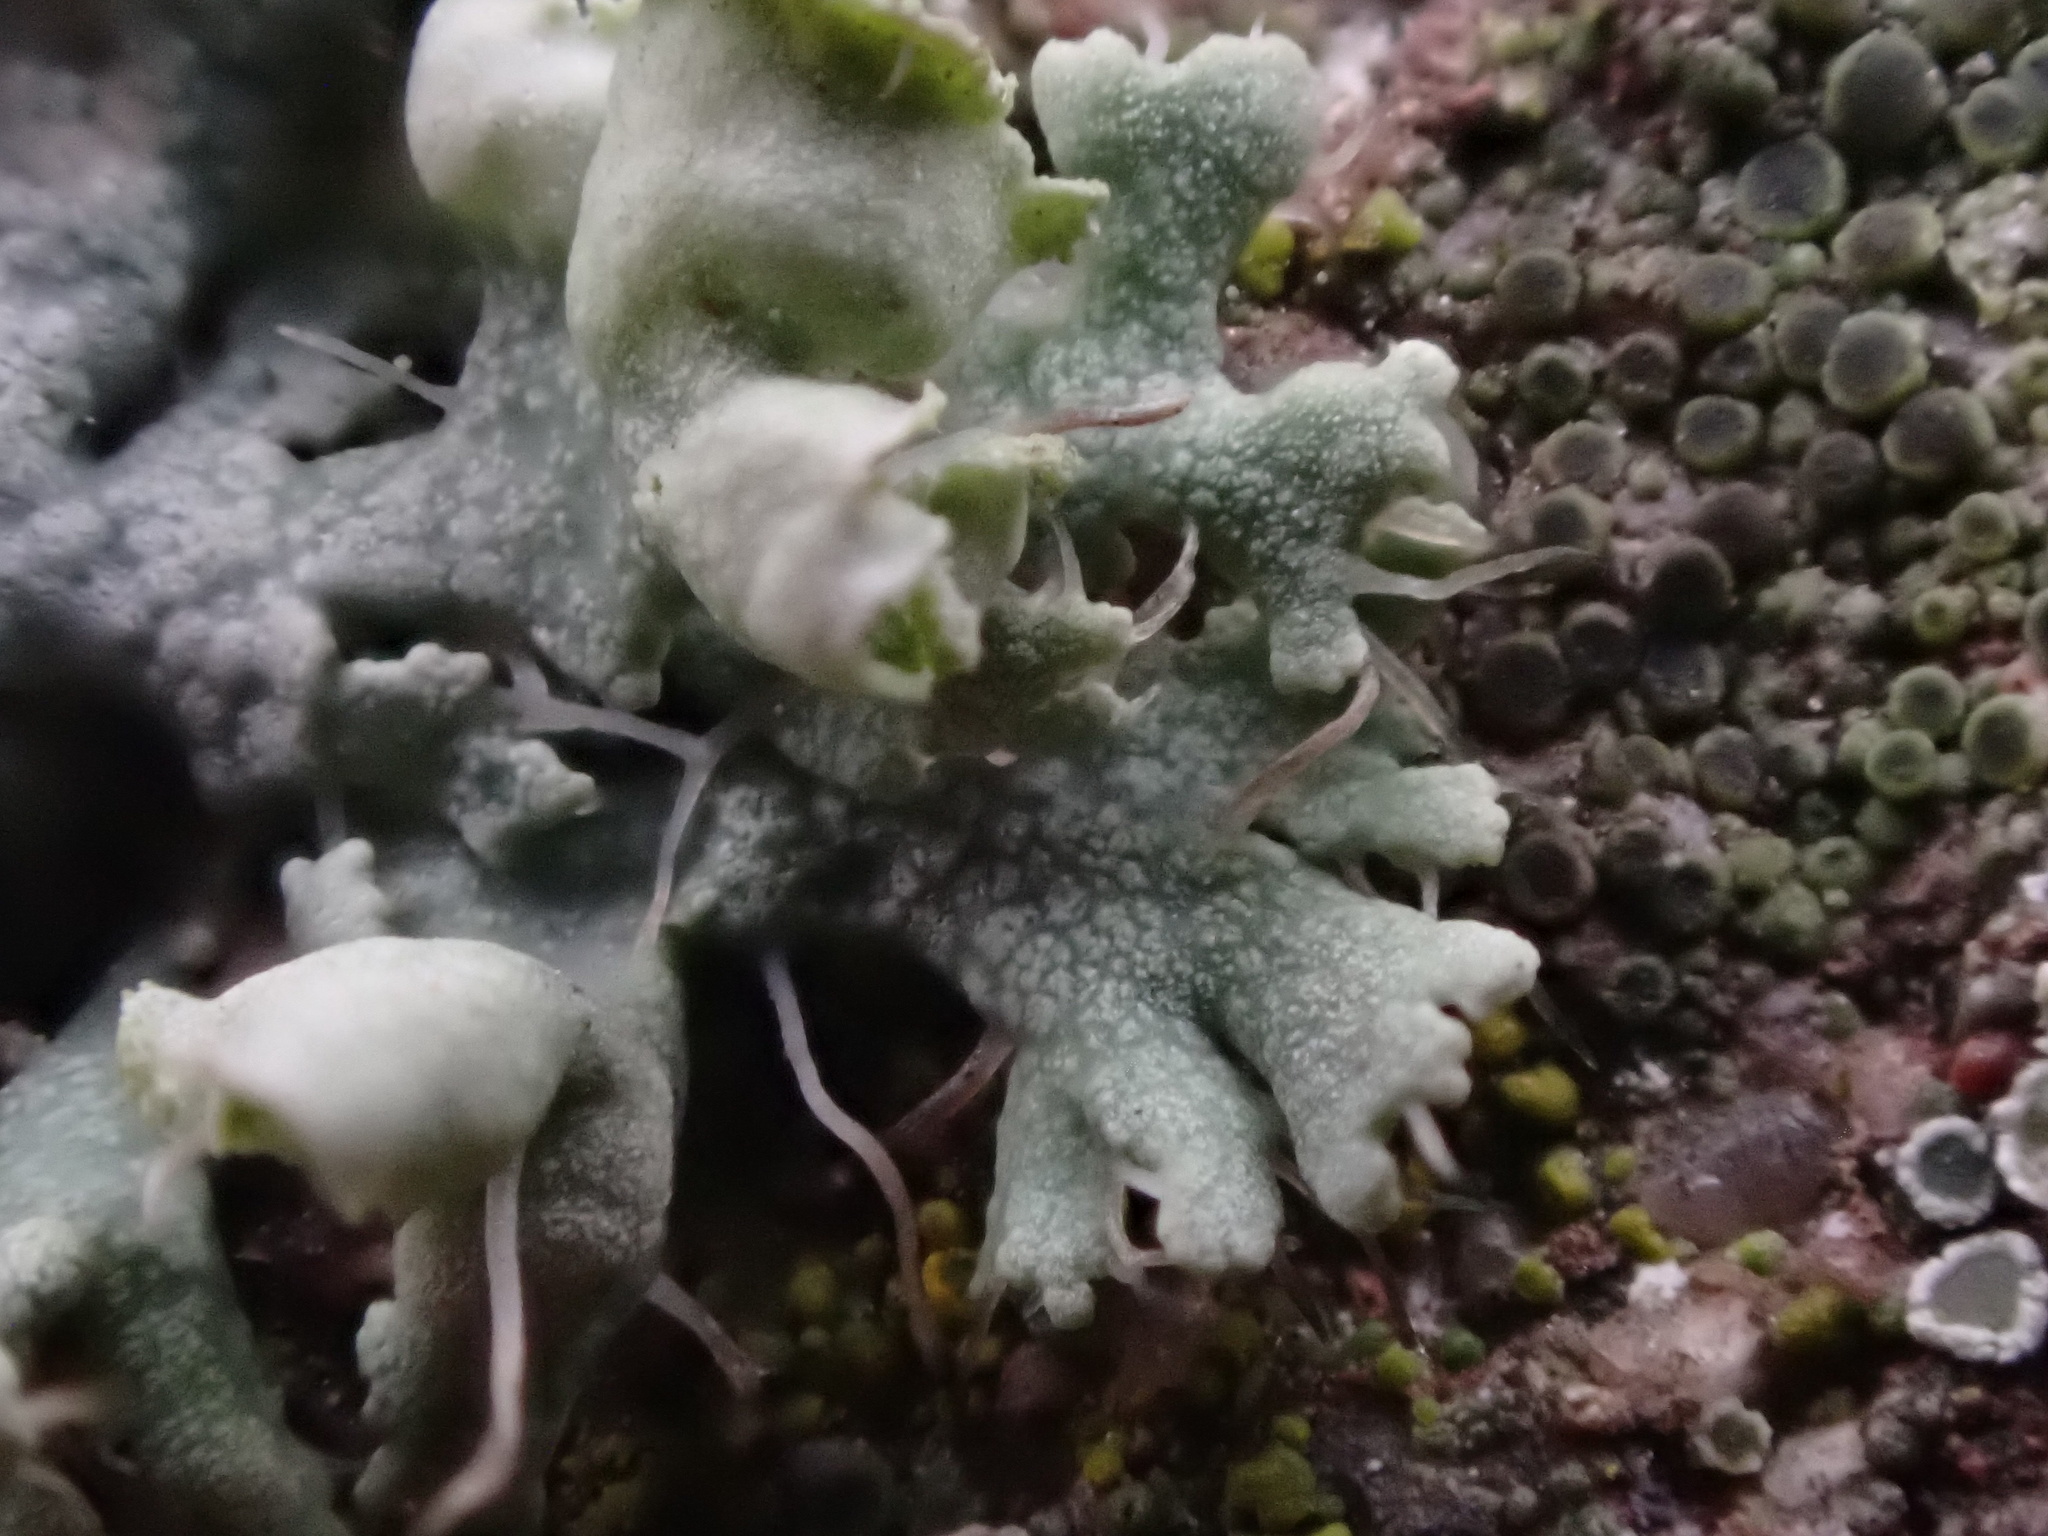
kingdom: Fungi
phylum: Ascomycota
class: Lecanoromycetes
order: Caliciales
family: Physciaceae
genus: Physcia
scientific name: Physcia adscendens
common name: Hooded rosette lichen
